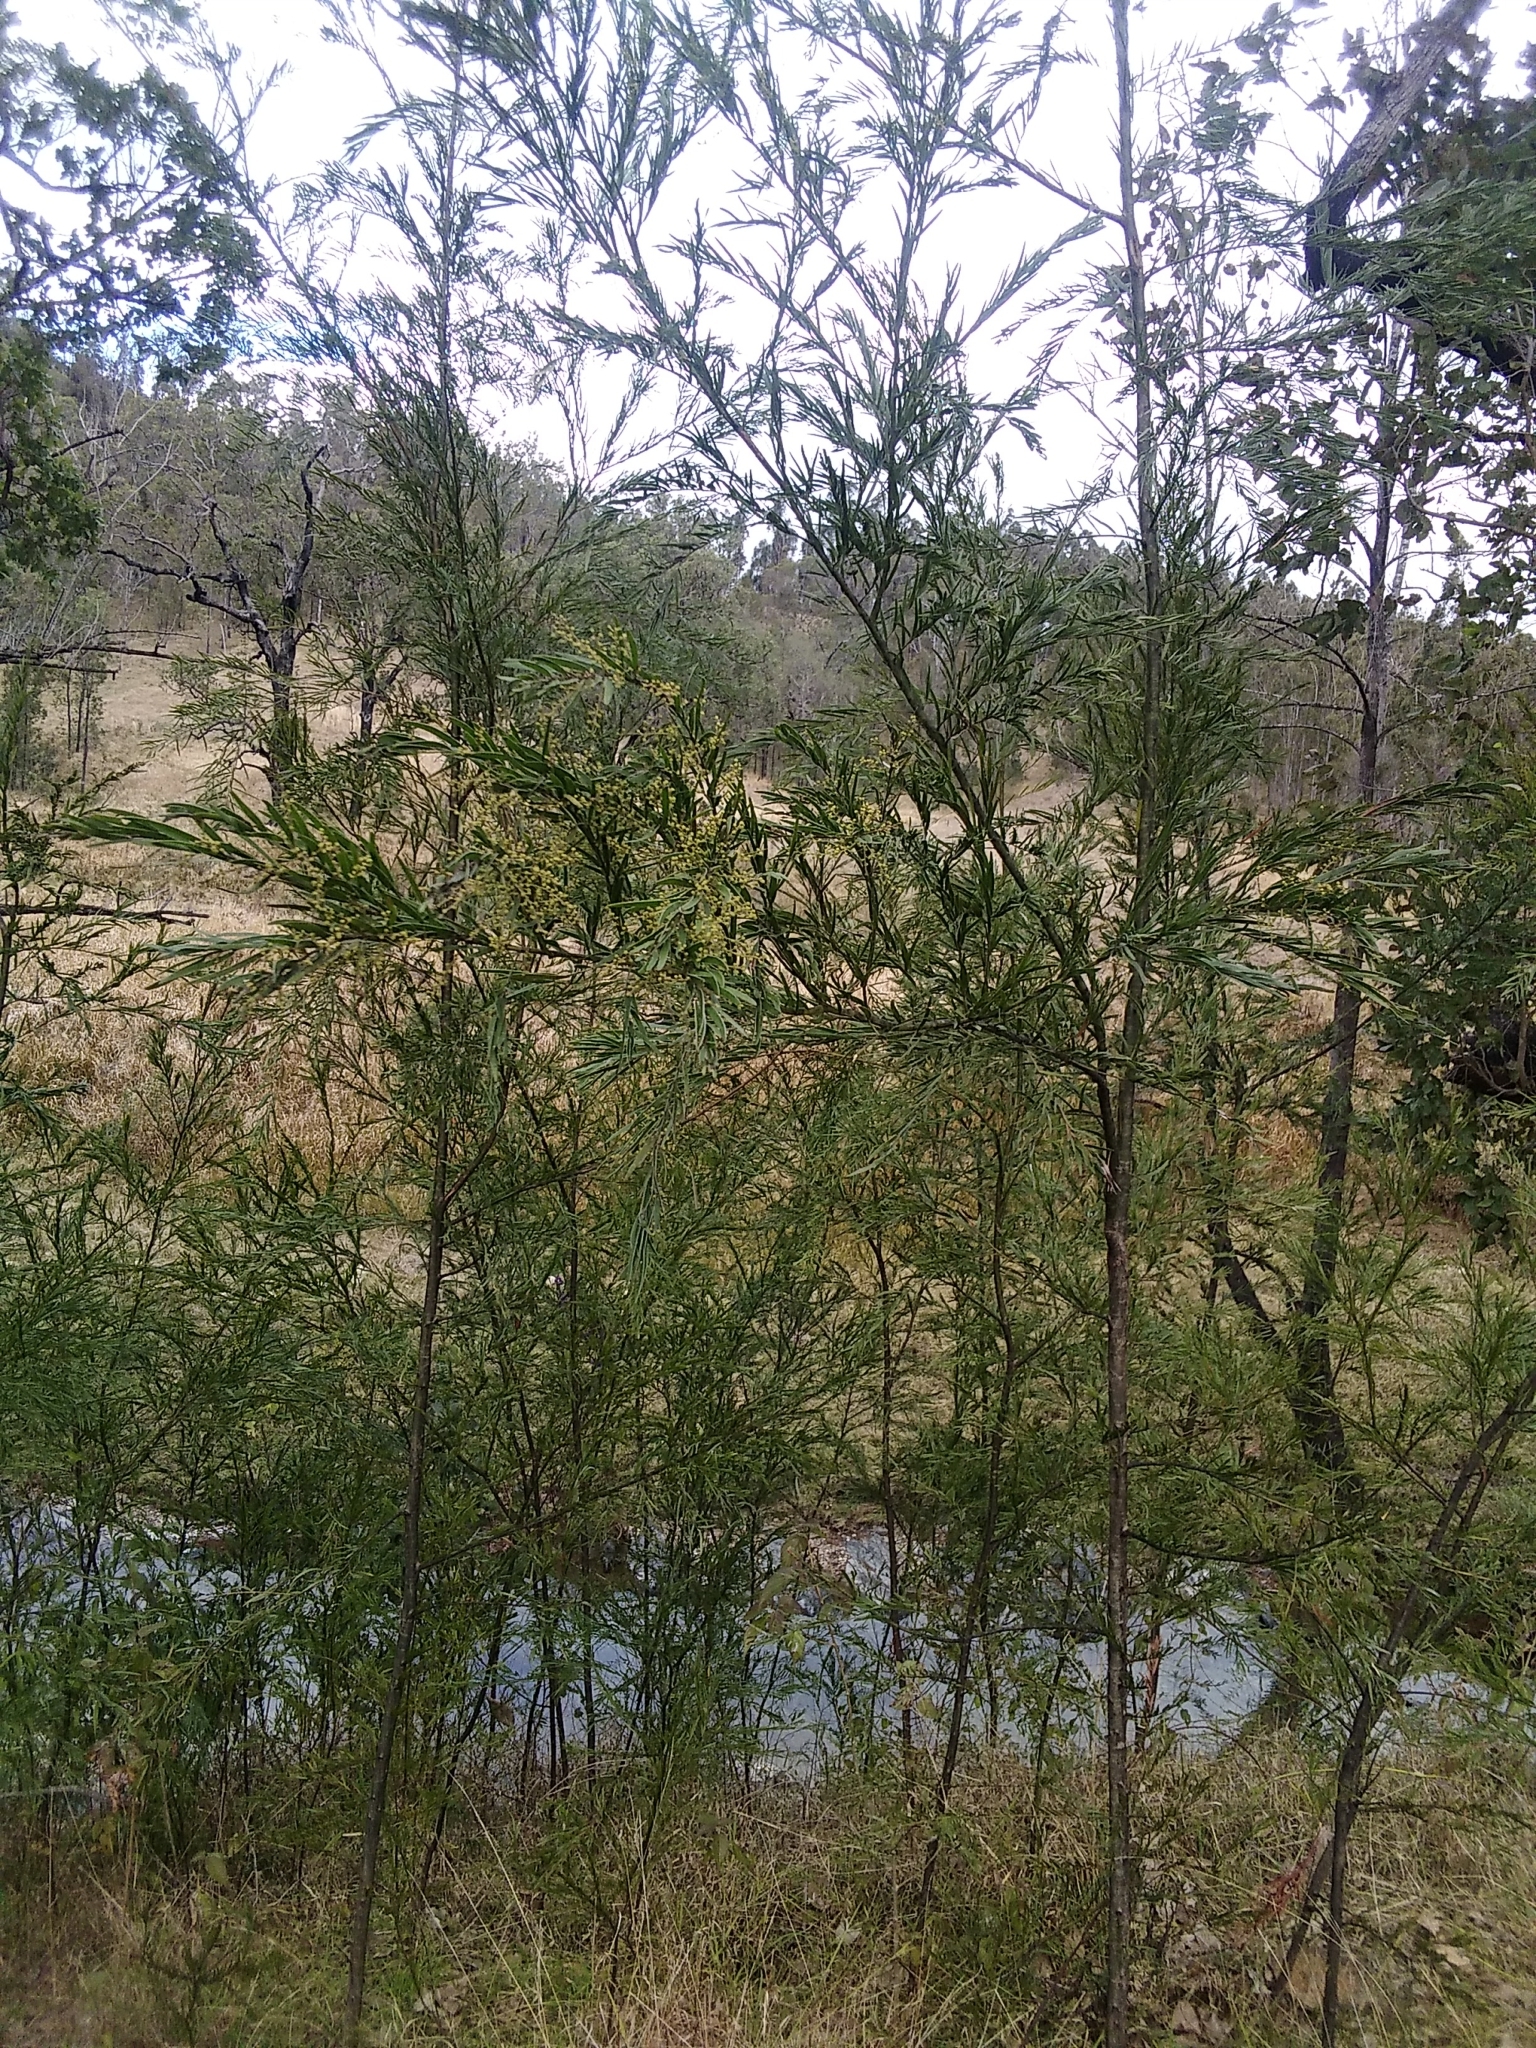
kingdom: Plantae
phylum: Tracheophyta
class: Magnoliopsida
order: Fabales
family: Fabaceae
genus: Acacia
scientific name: Acacia fimbriata
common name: Brisbane golden wattle
